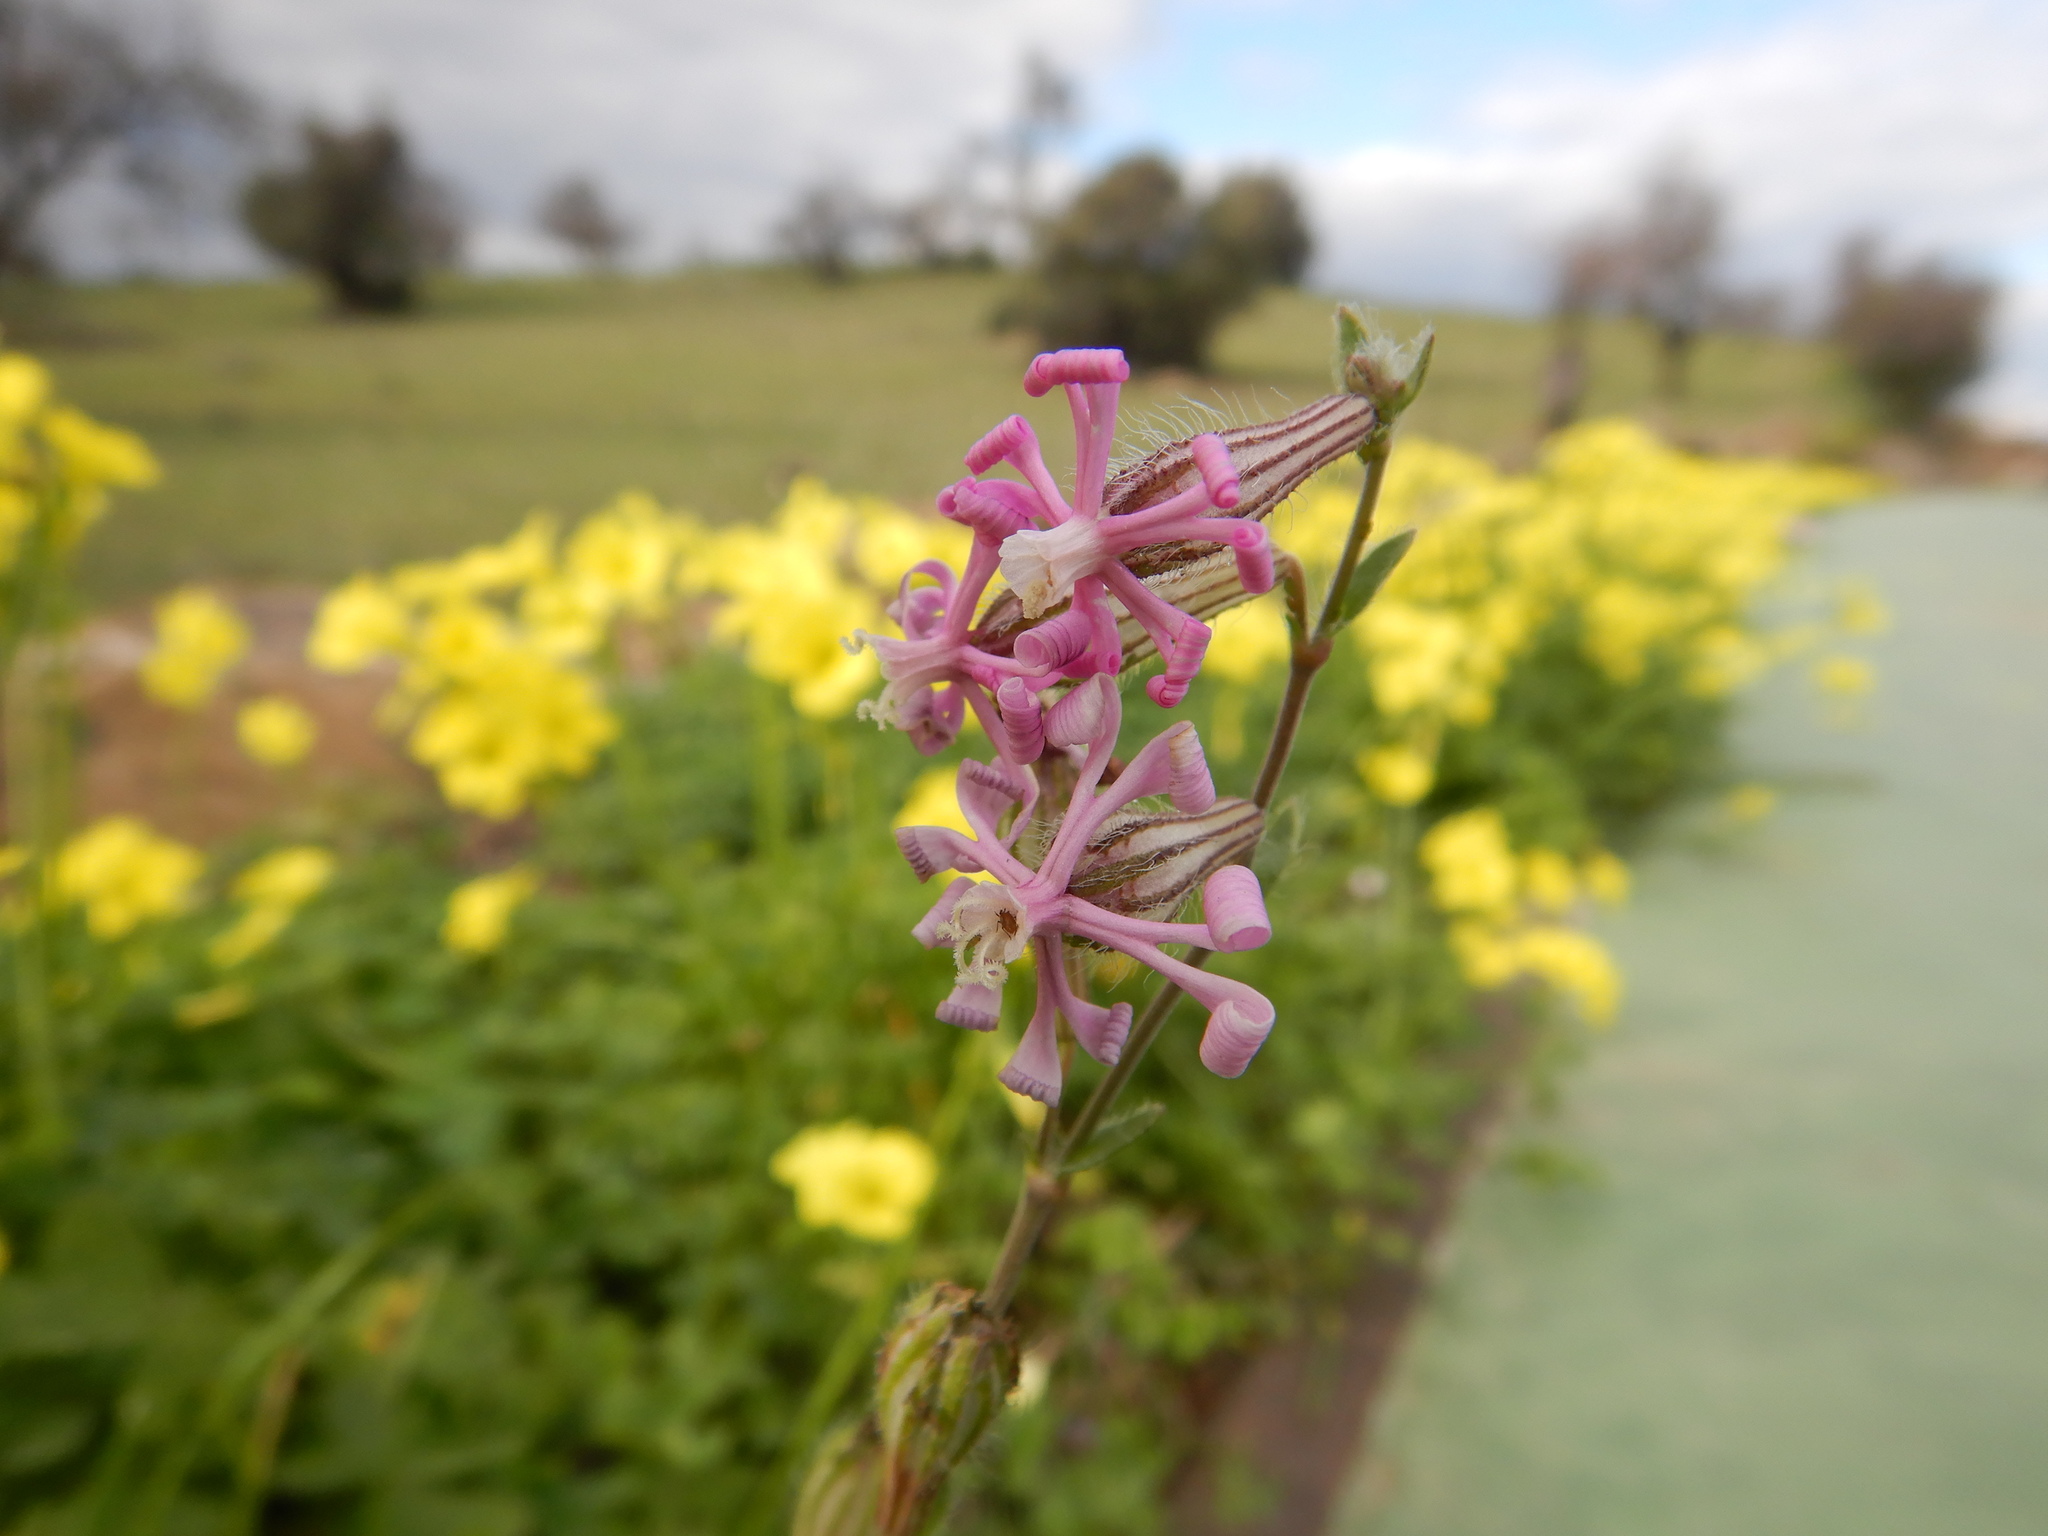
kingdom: Plantae
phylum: Tracheophyta
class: Magnoliopsida
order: Caryophyllales
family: Caryophyllaceae
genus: Silene
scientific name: Silene colorata
